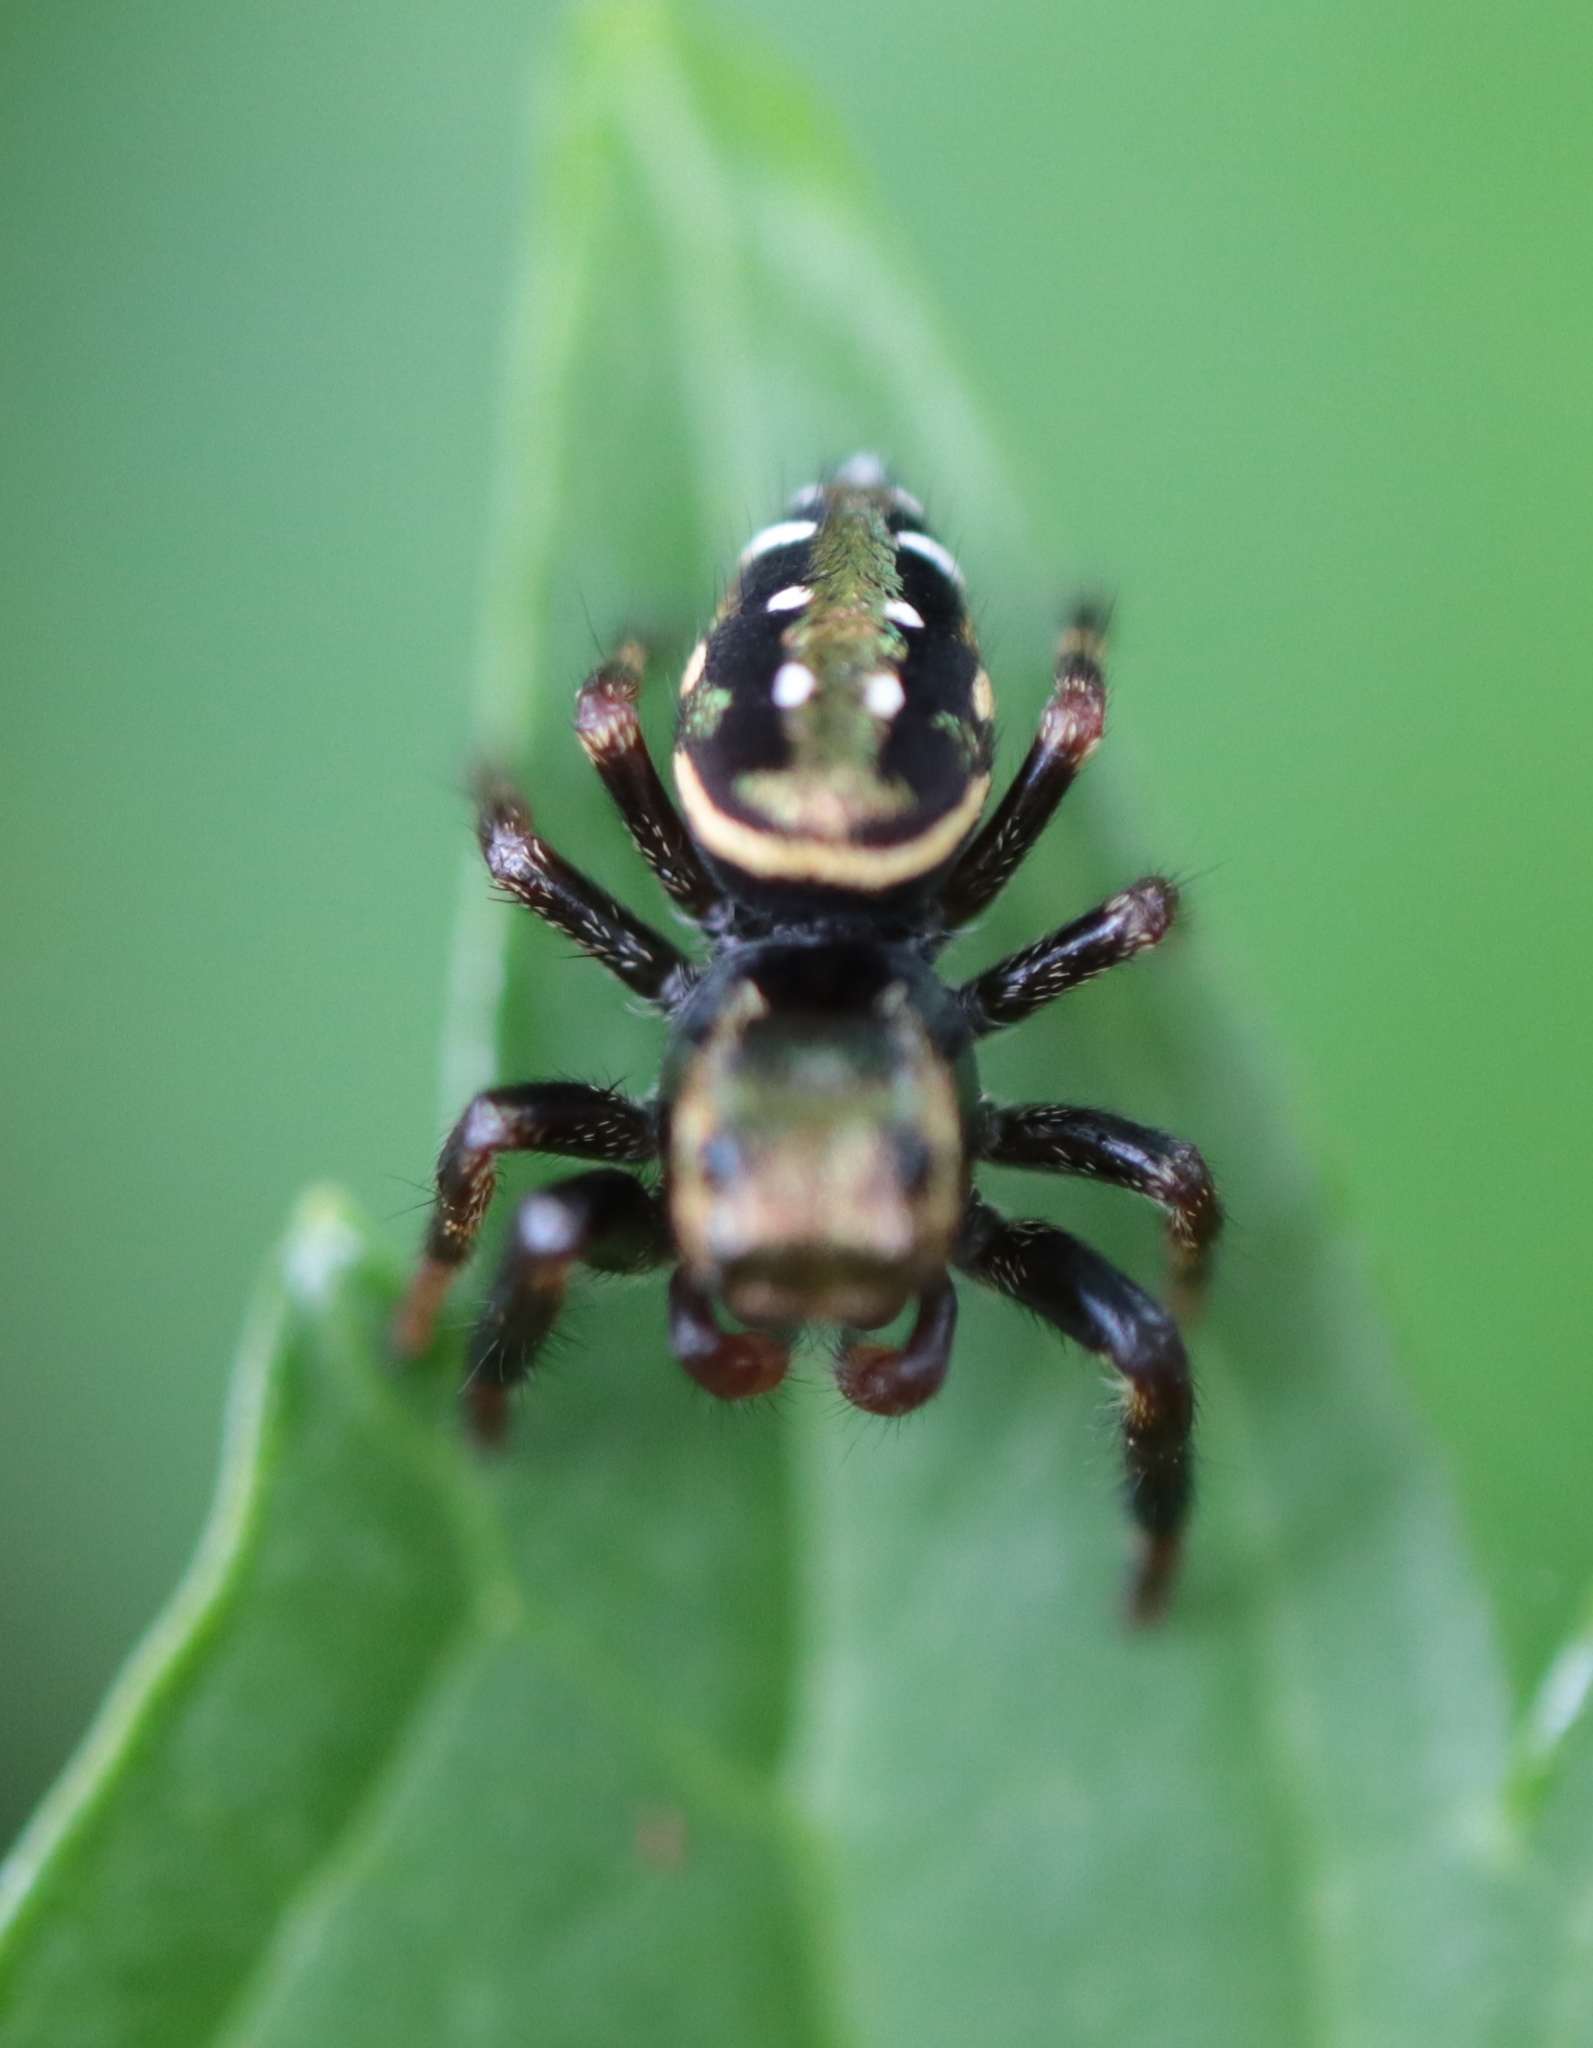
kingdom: Animalia
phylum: Arthropoda
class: Arachnida
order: Araneae
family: Salticidae
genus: Paraphidippus
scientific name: Paraphidippus aurantius
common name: Jumping spiders
